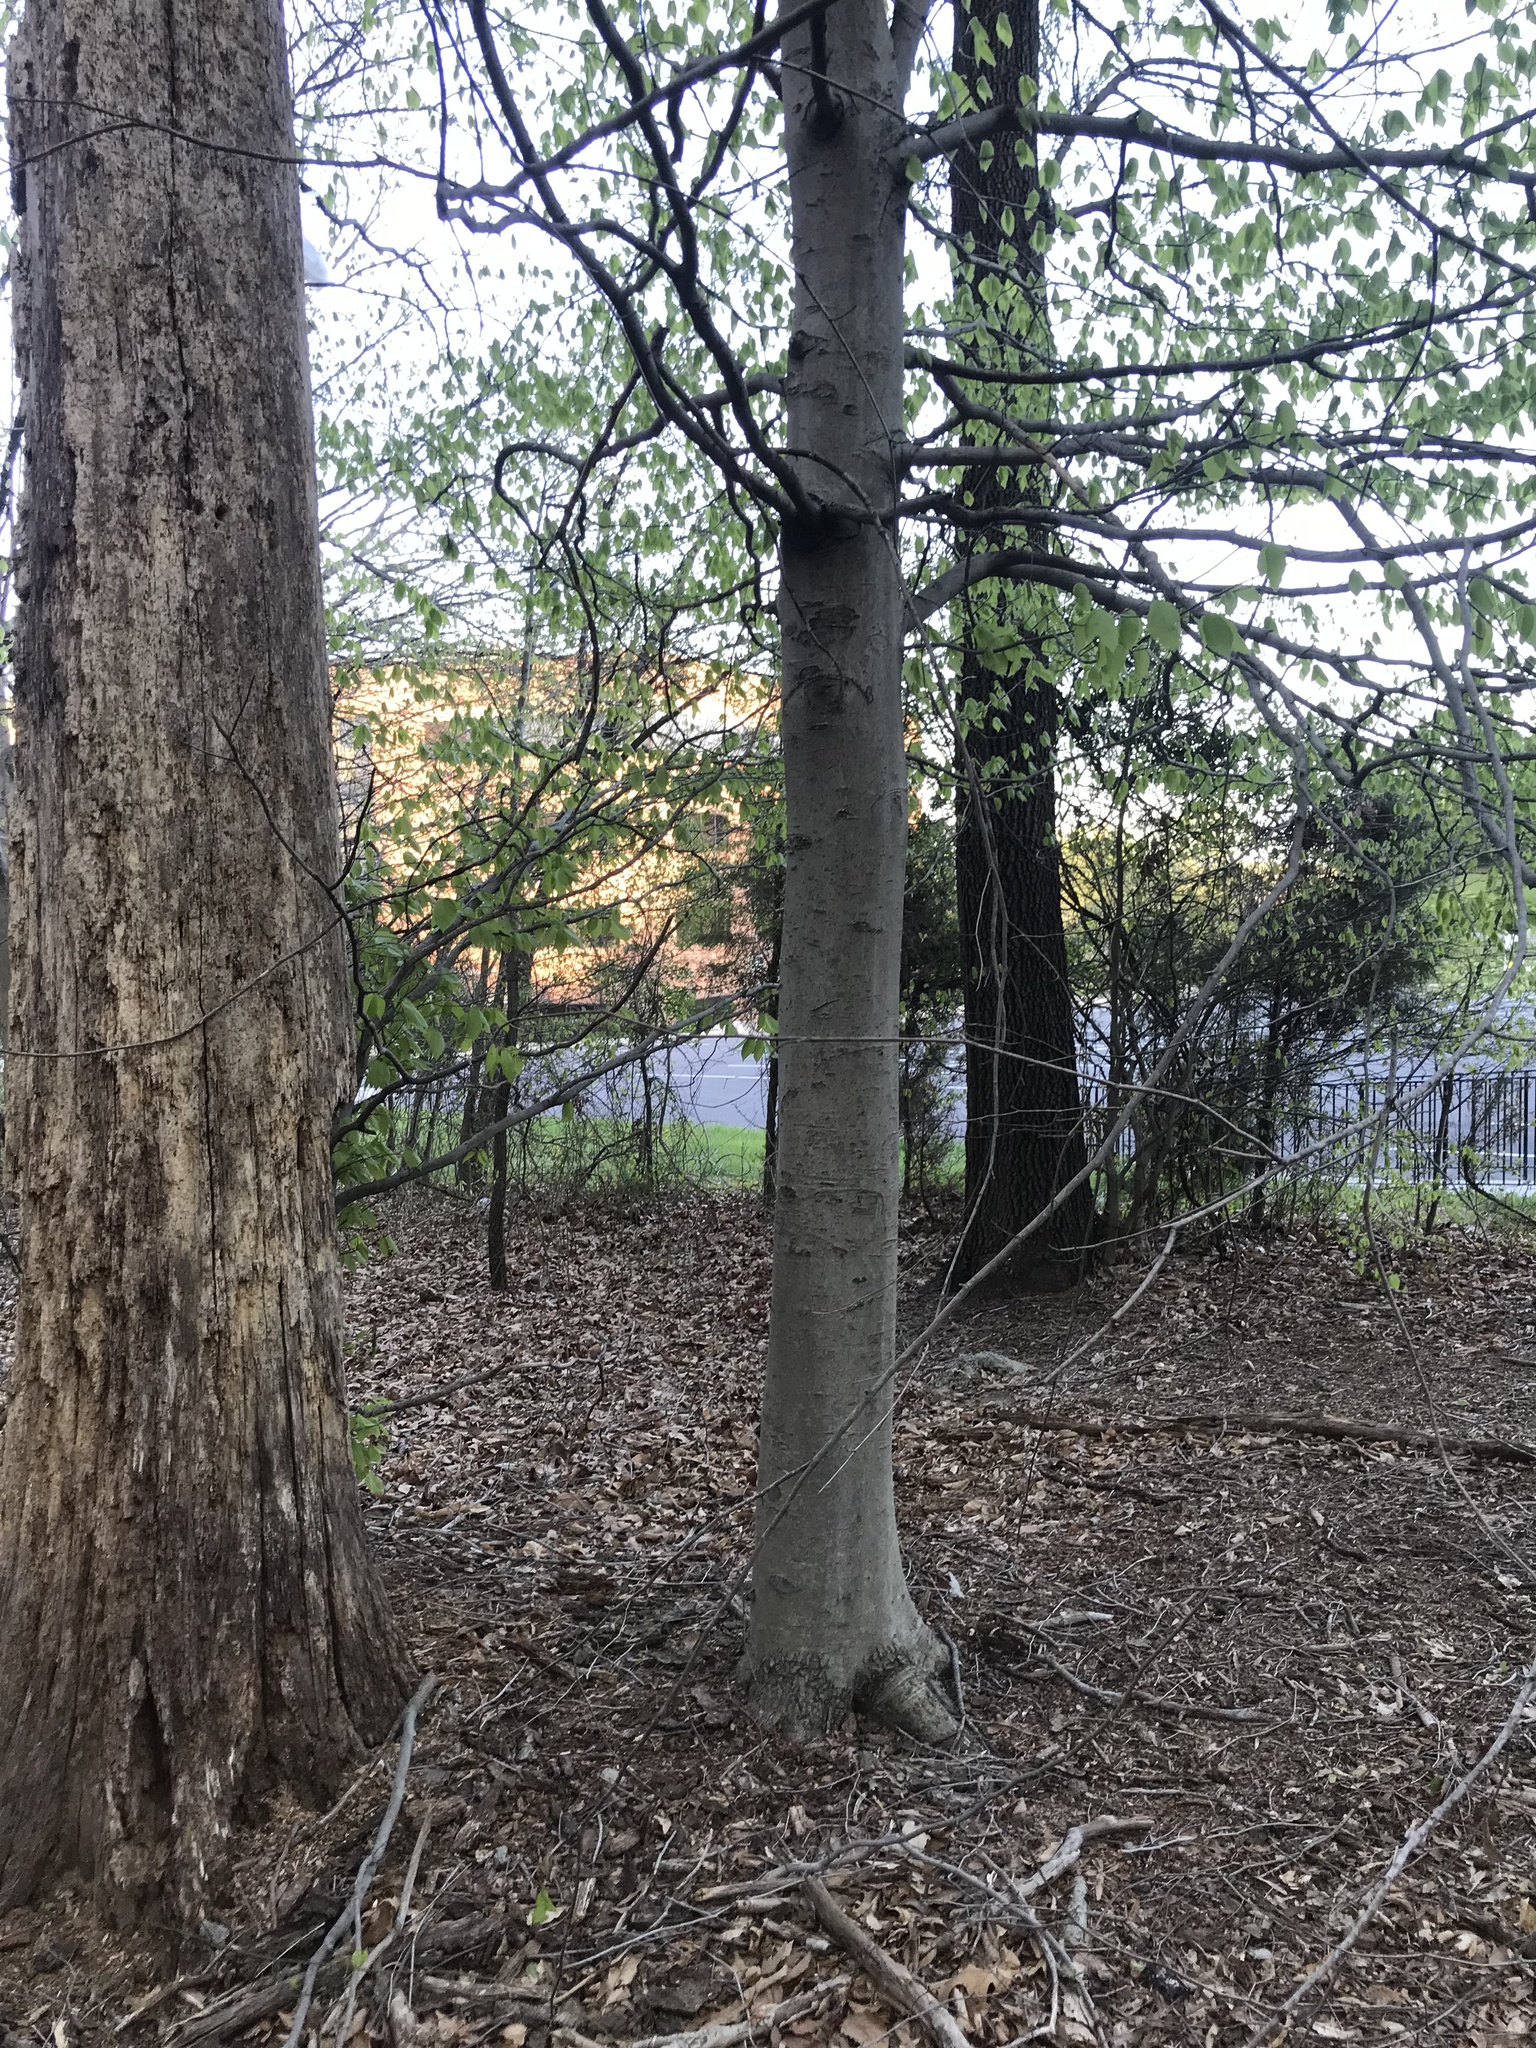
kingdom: Plantae
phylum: Tracheophyta
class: Magnoliopsida
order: Fagales
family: Fagaceae
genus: Fagus
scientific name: Fagus grandifolia
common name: American beech
